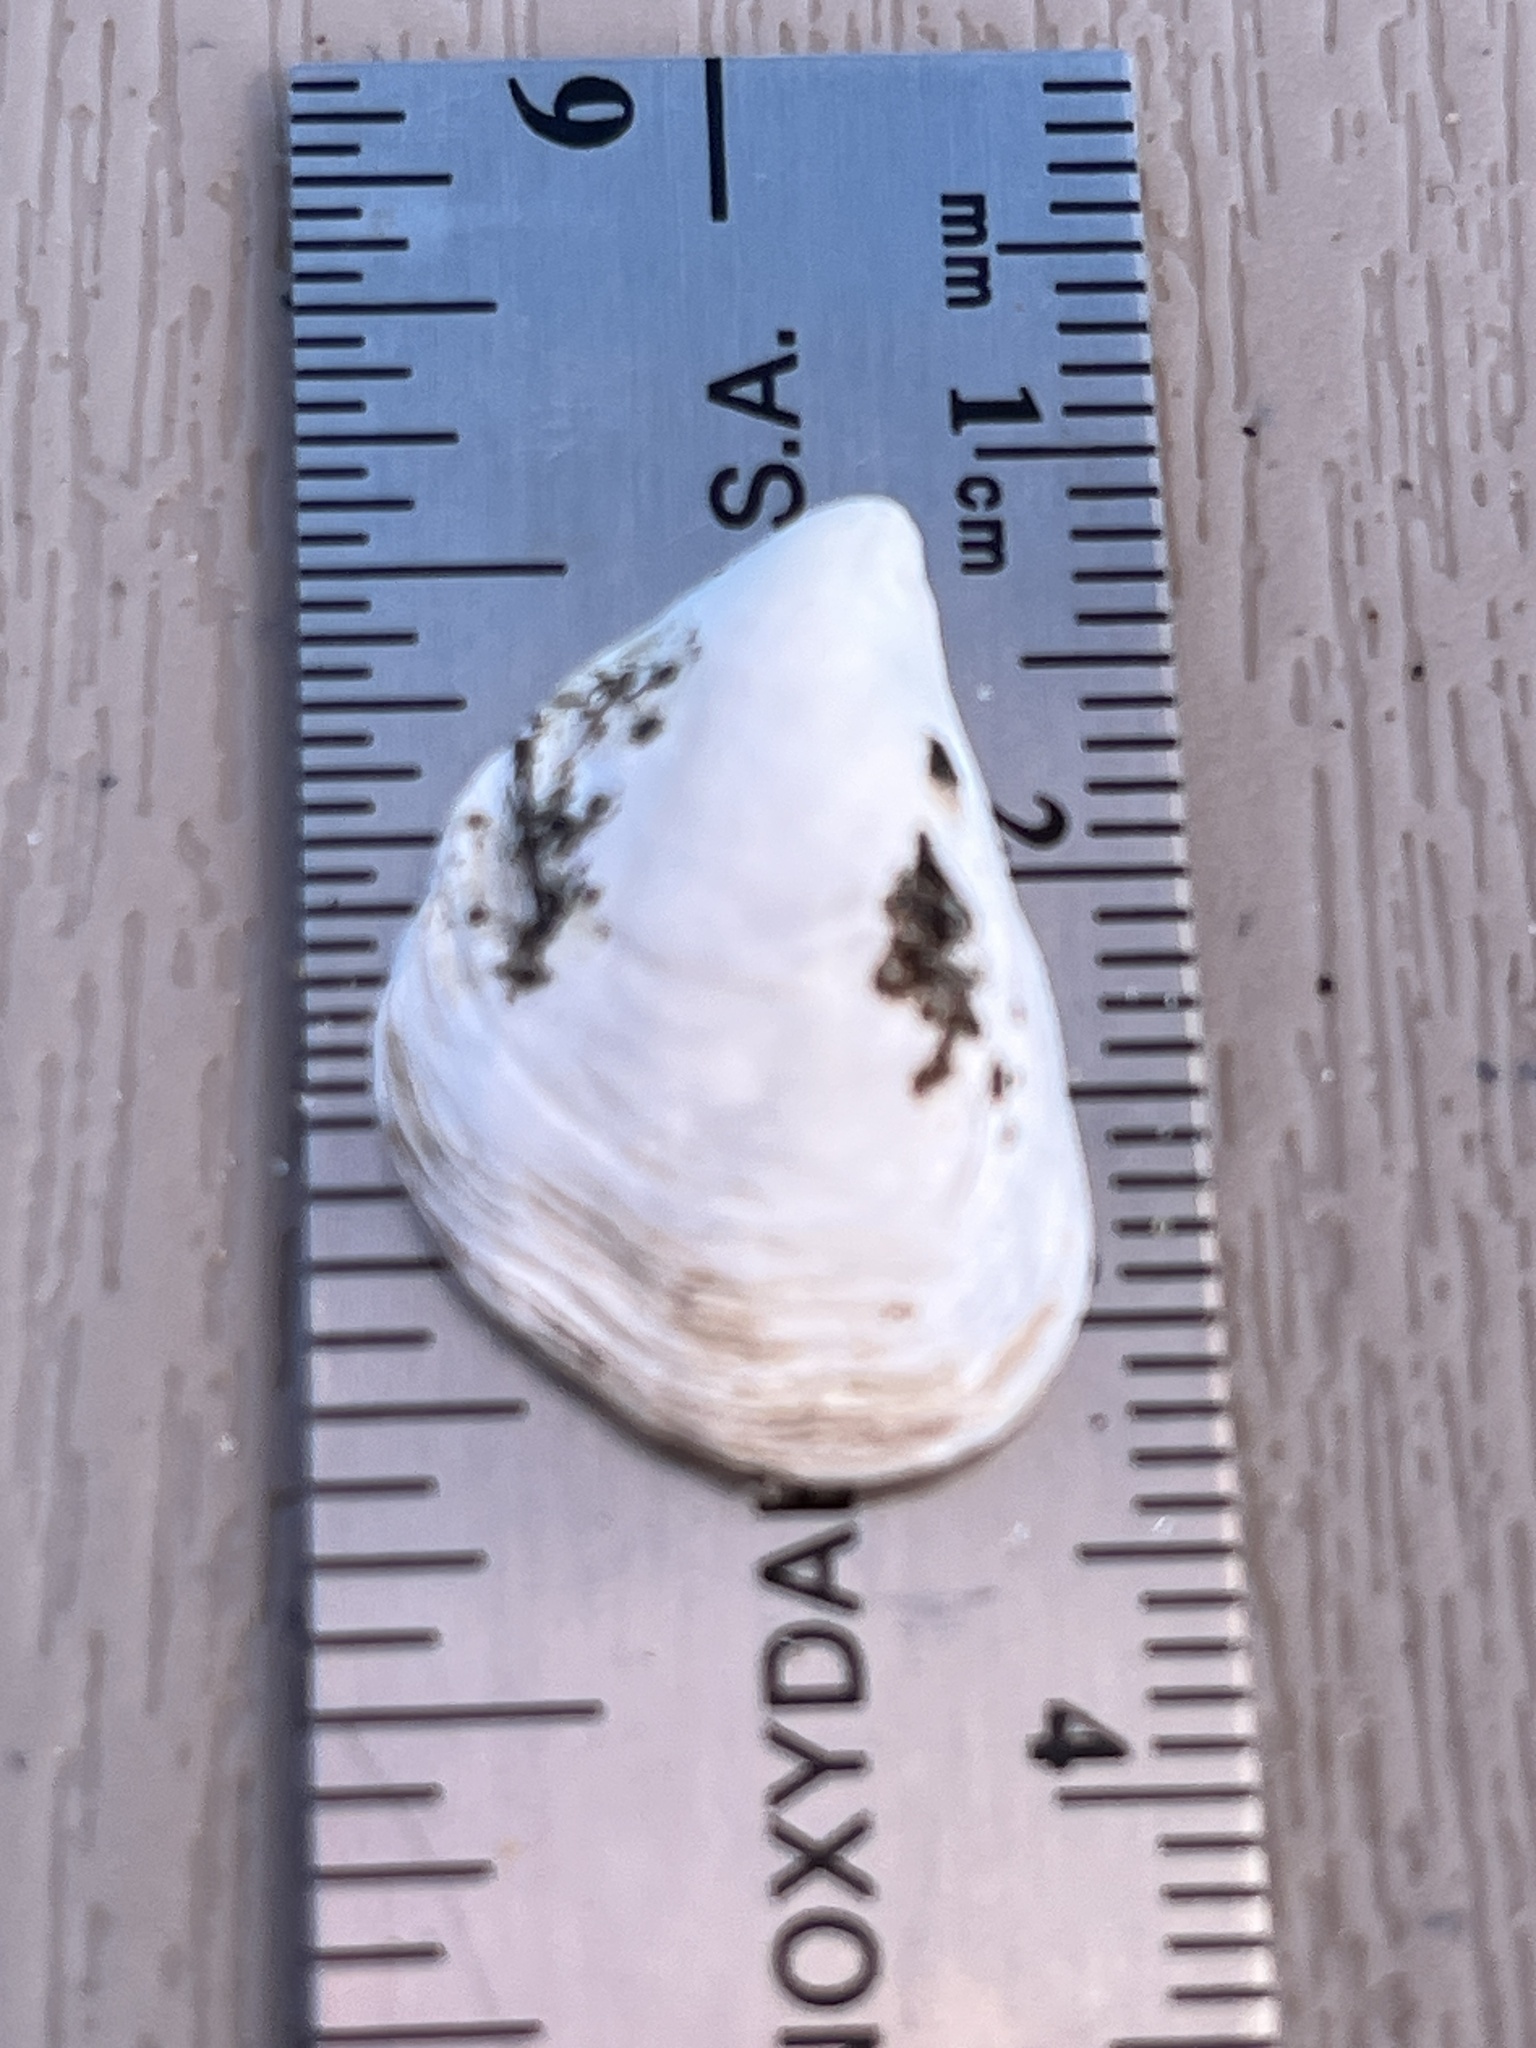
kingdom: Animalia
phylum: Mollusca
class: Bivalvia
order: Myida
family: Dreissenidae
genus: Dreissena
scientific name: Dreissena bugensis
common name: Quagga mussel
